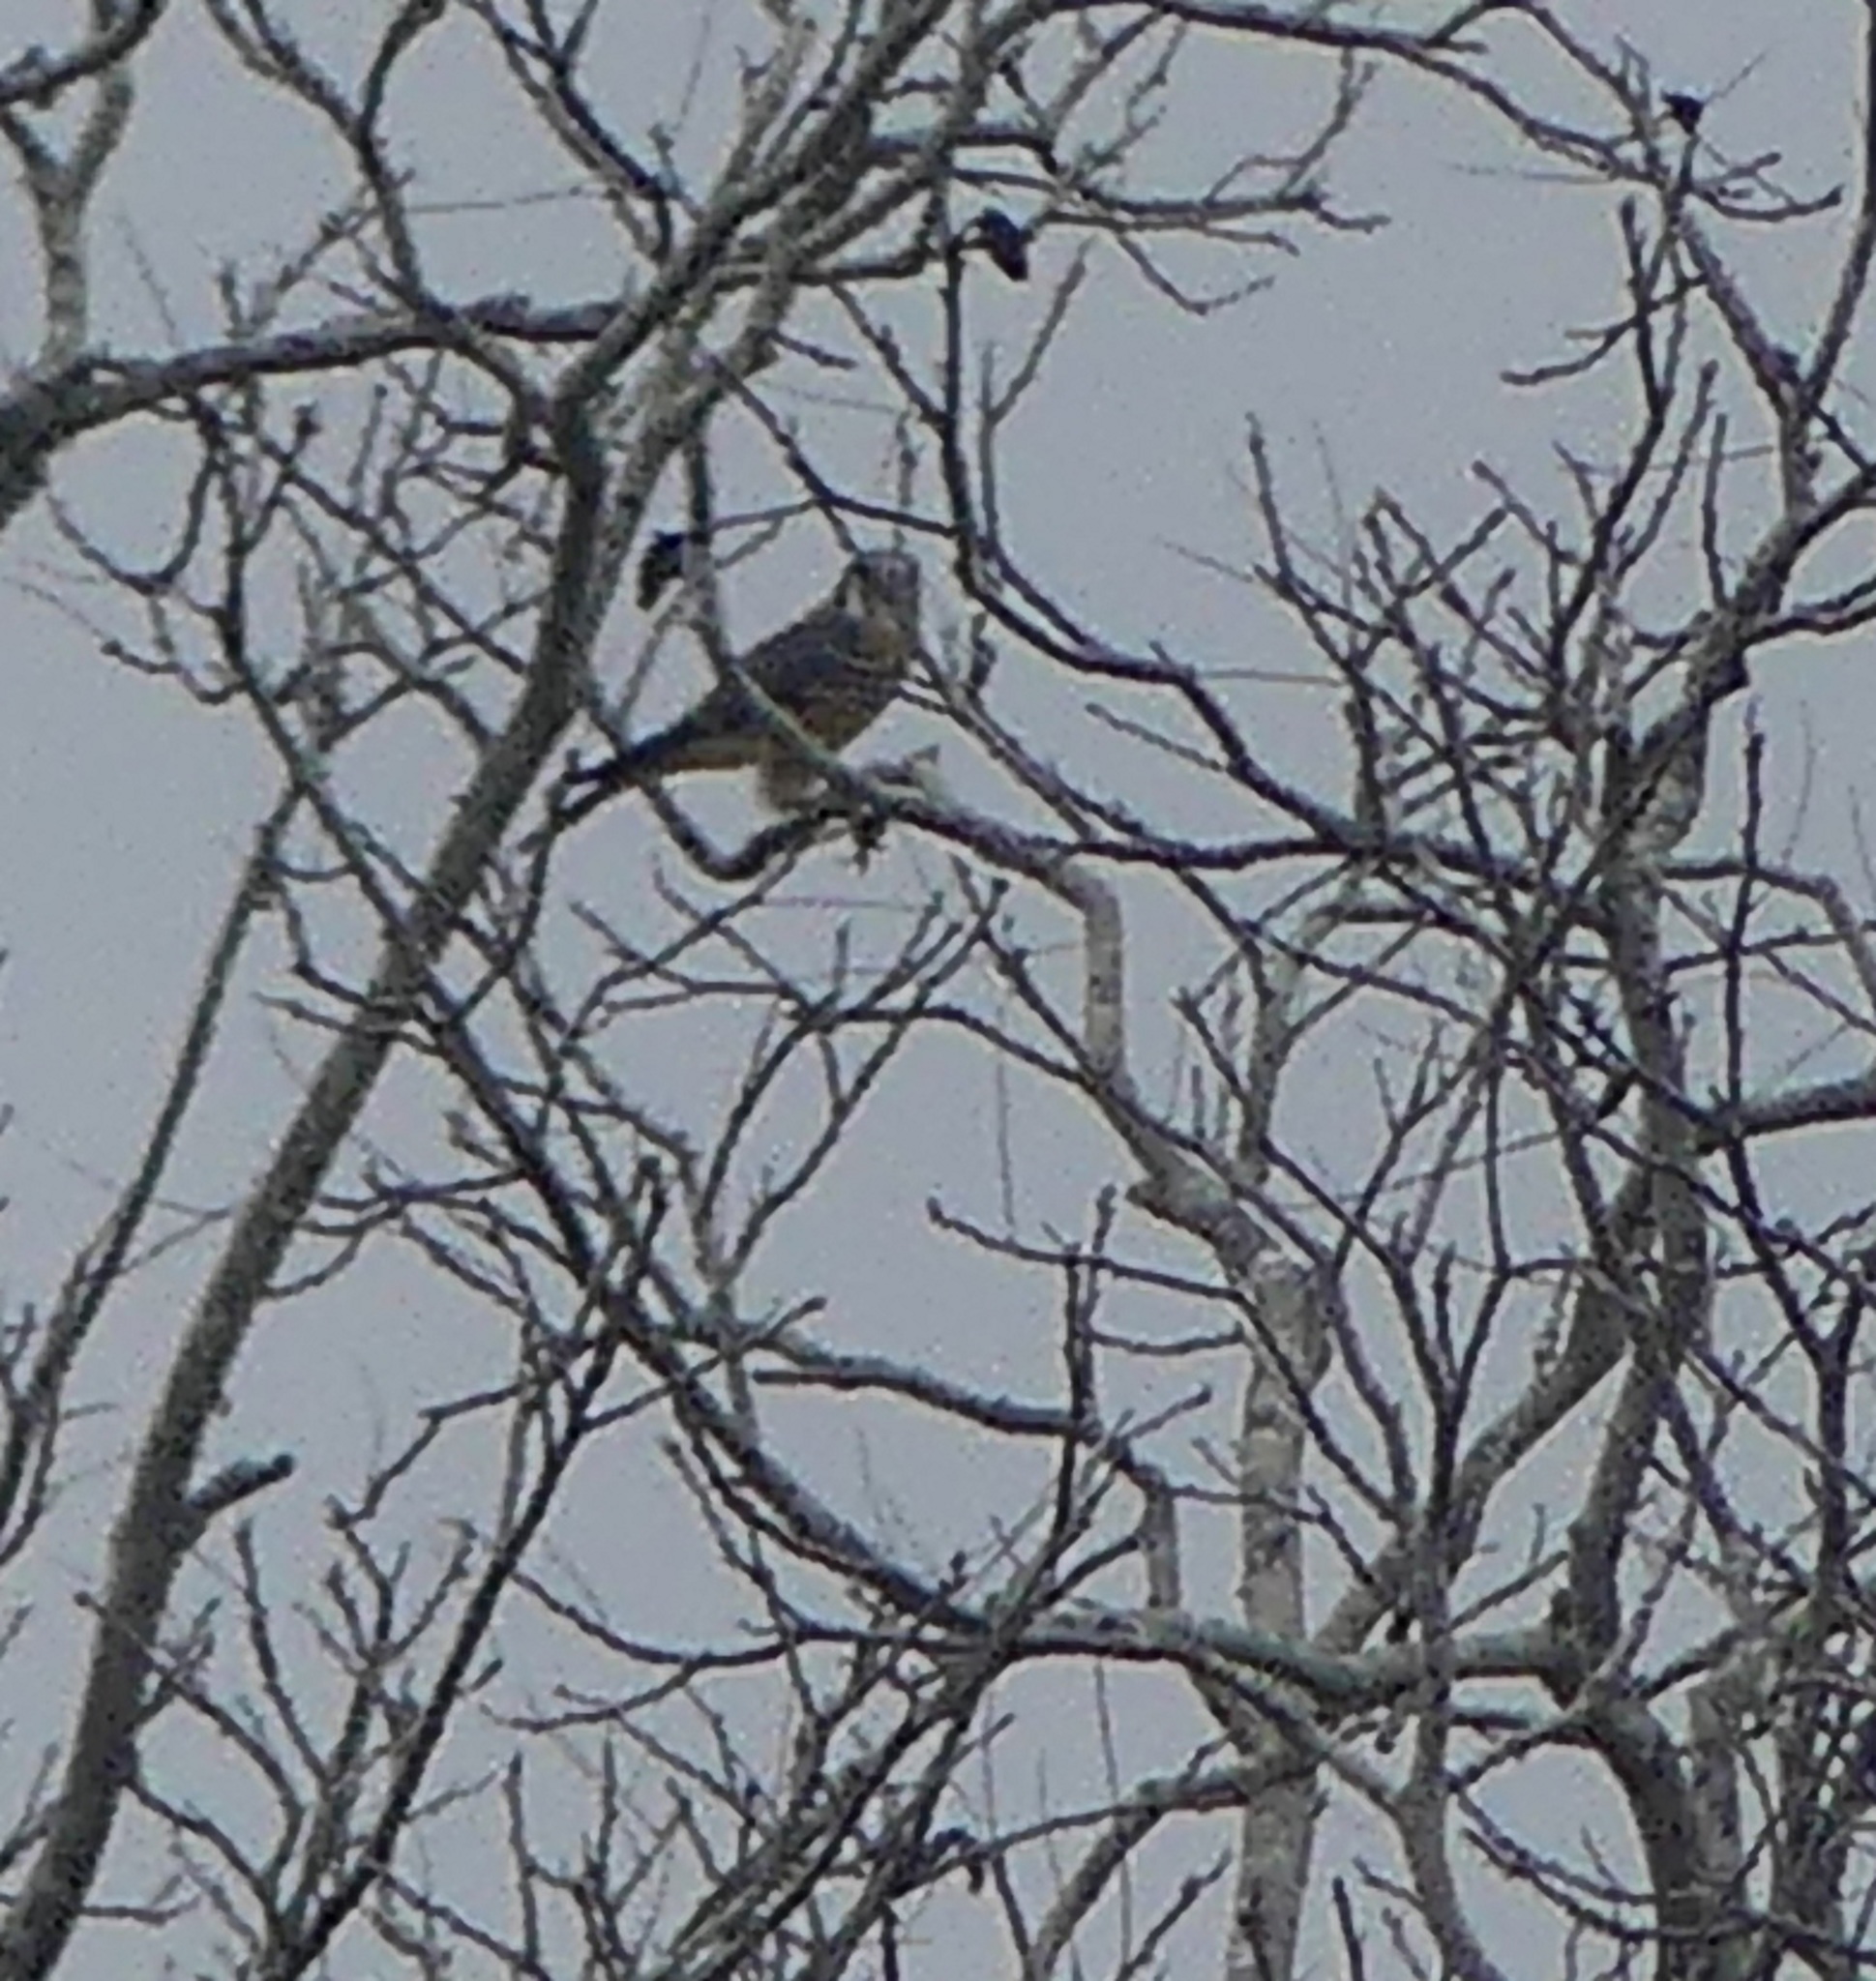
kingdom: Animalia
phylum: Chordata
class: Aves
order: Falconiformes
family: Falconidae
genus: Falco
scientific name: Falco sparverius
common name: American kestrel
